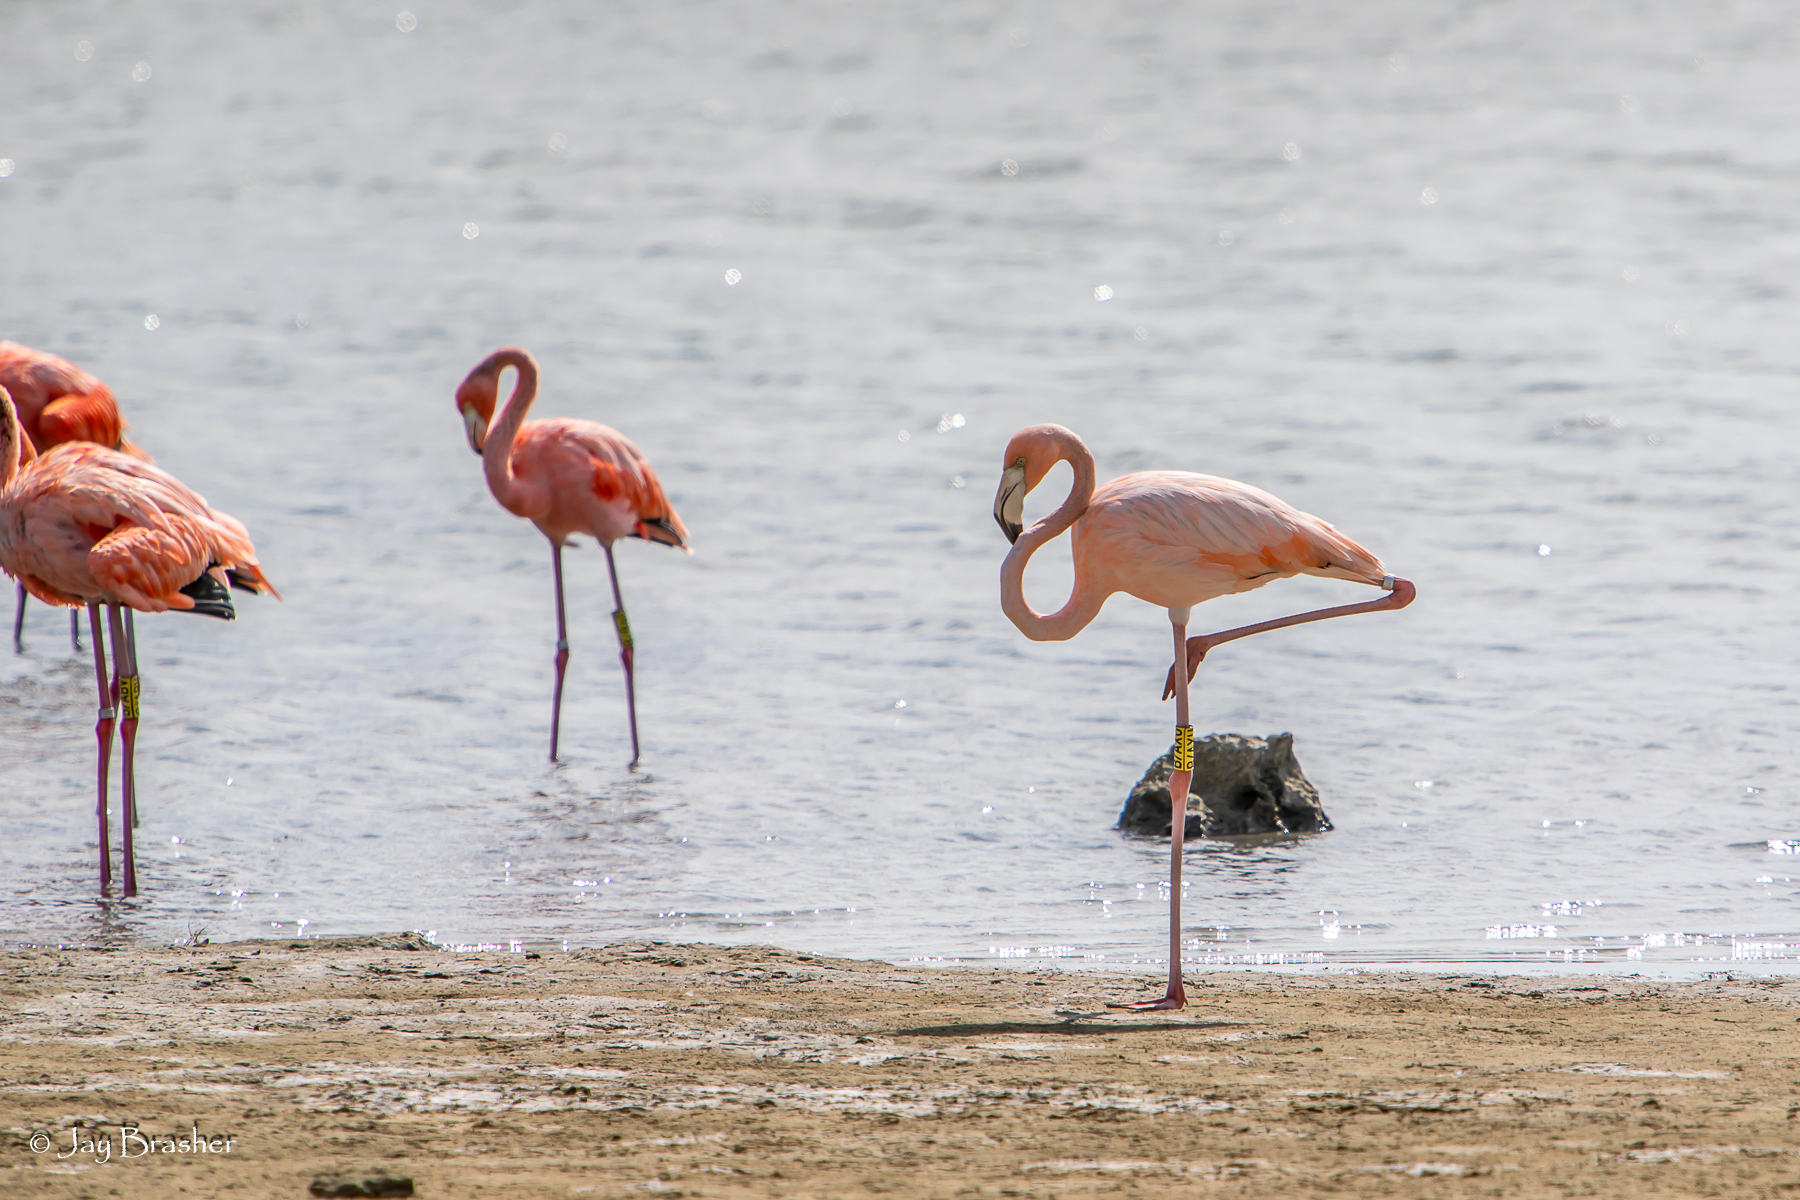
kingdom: Animalia
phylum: Chordata
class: Aves
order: Phoenicopteriformes
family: Phoenicopteridae
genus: Phoenicopterus
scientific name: Phoenicopterus ruber
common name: American flamingo
